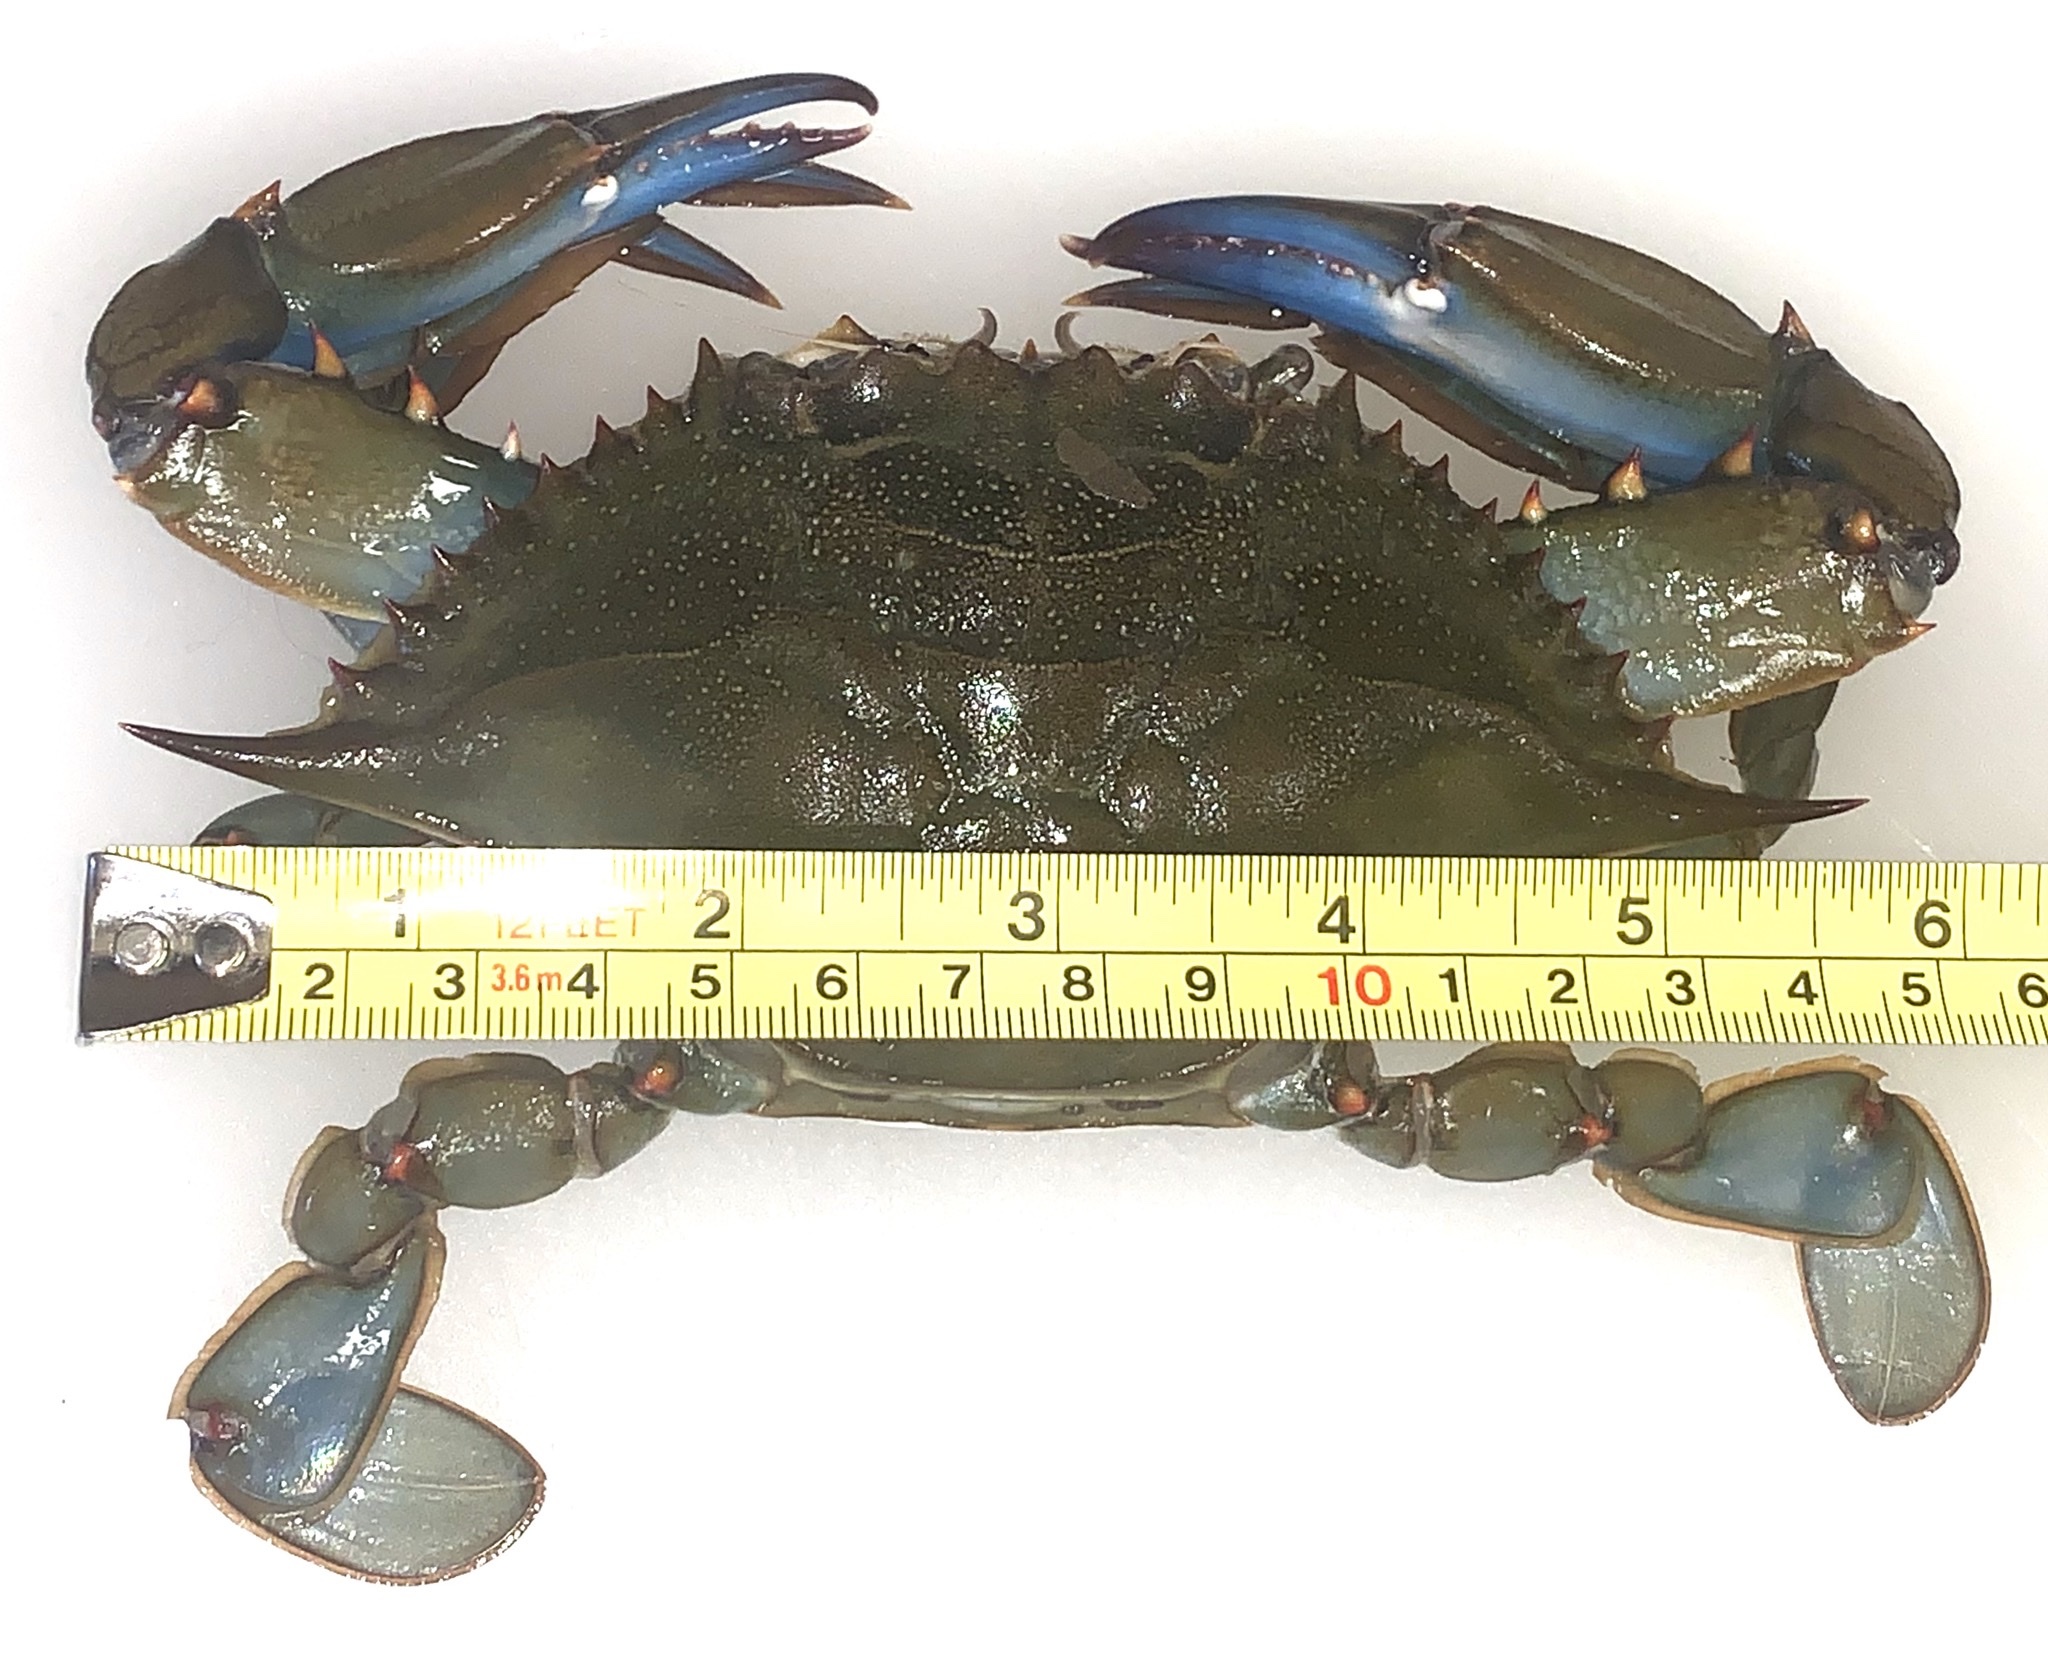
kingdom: Animalia
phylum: Arthropoda
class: Malacostraca
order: Decapoda
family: Portunidae
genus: Callinectes
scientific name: Callinectes sapidus
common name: Blue crab
